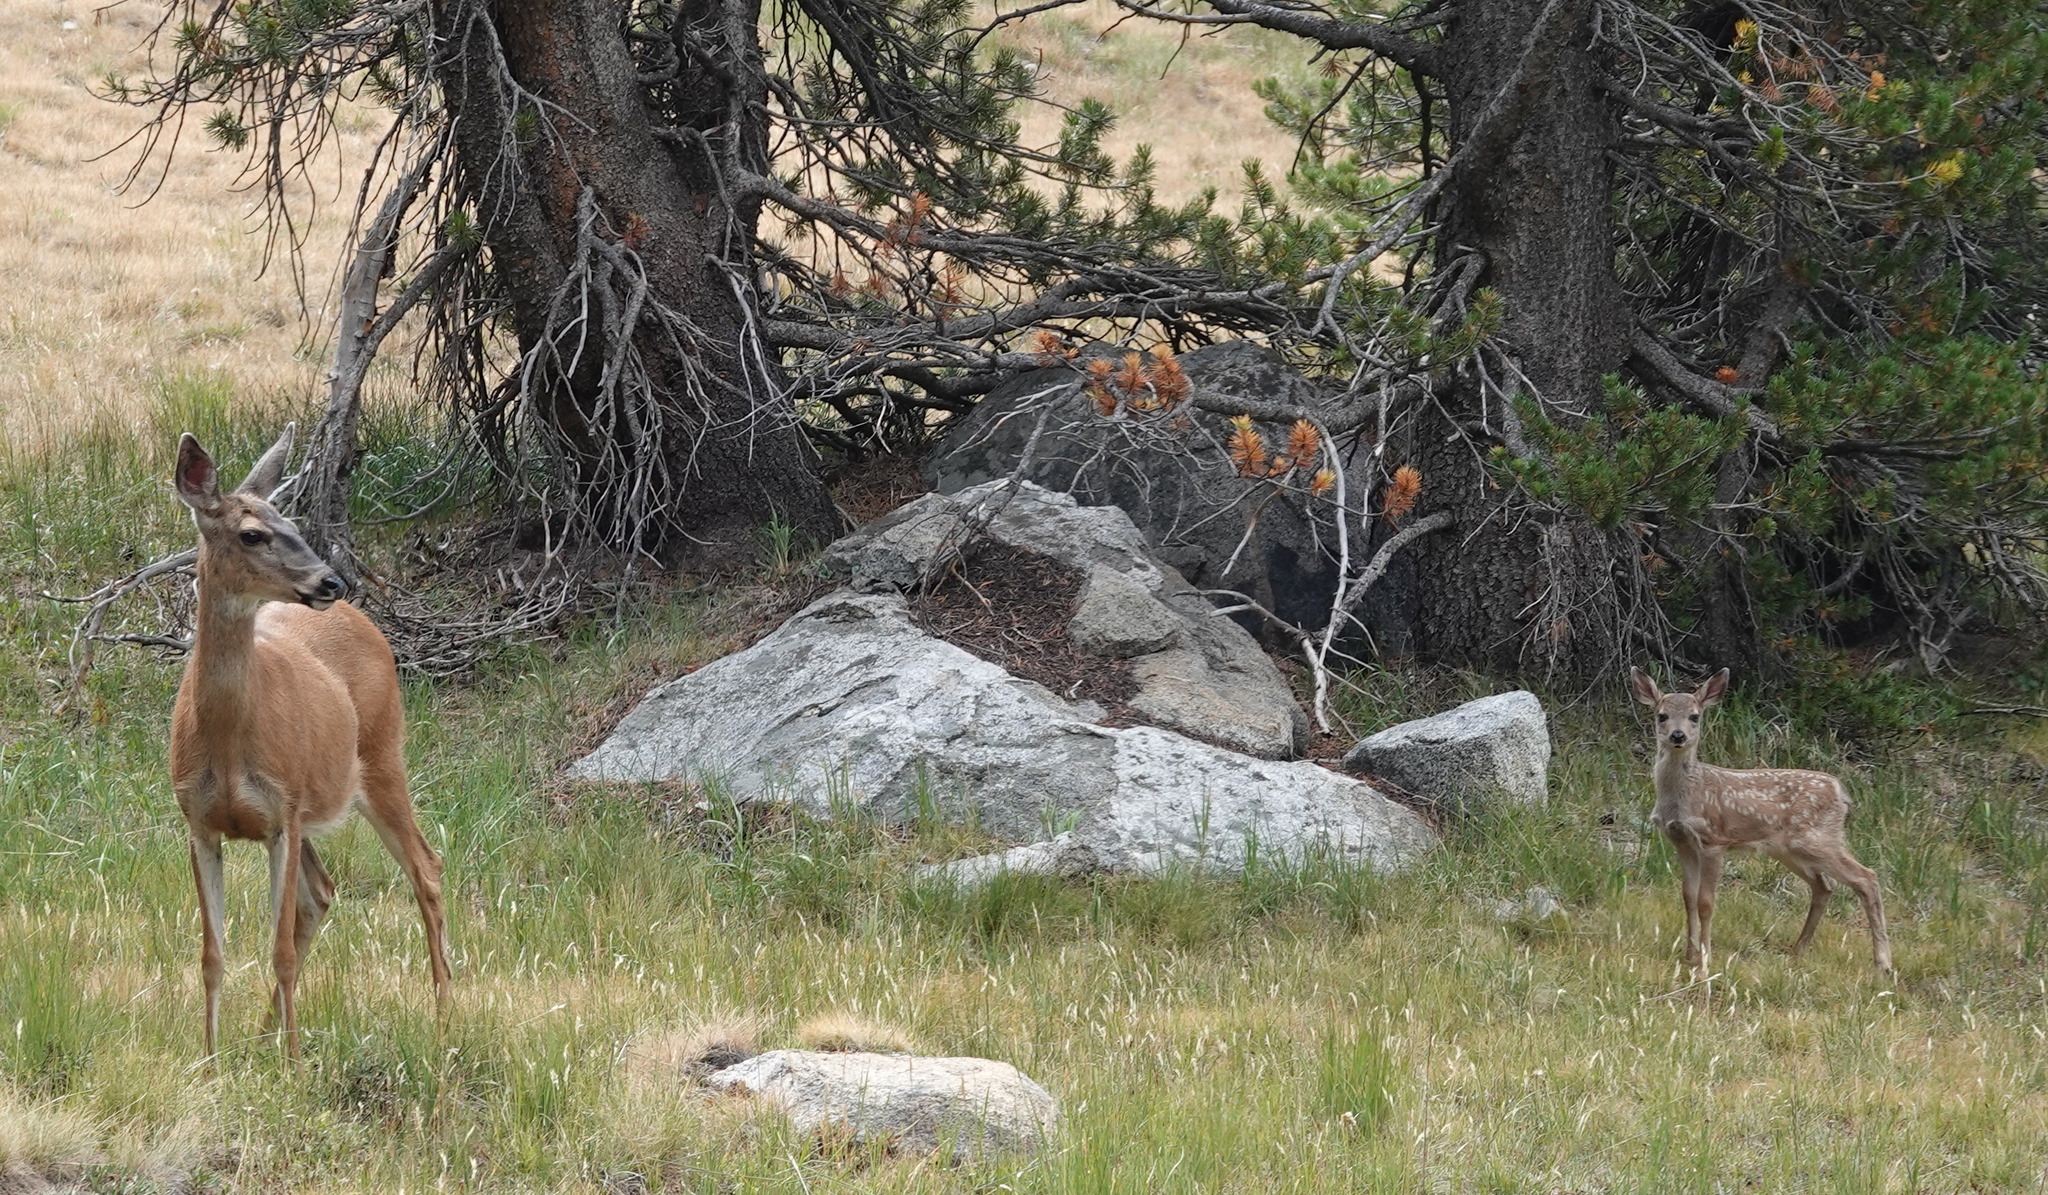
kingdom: Animalia
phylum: Chordata
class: Mammalia
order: Artiodactyla
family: Cervidae
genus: Odocoileus
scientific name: Odocoileus hemionus
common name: Mule deer
